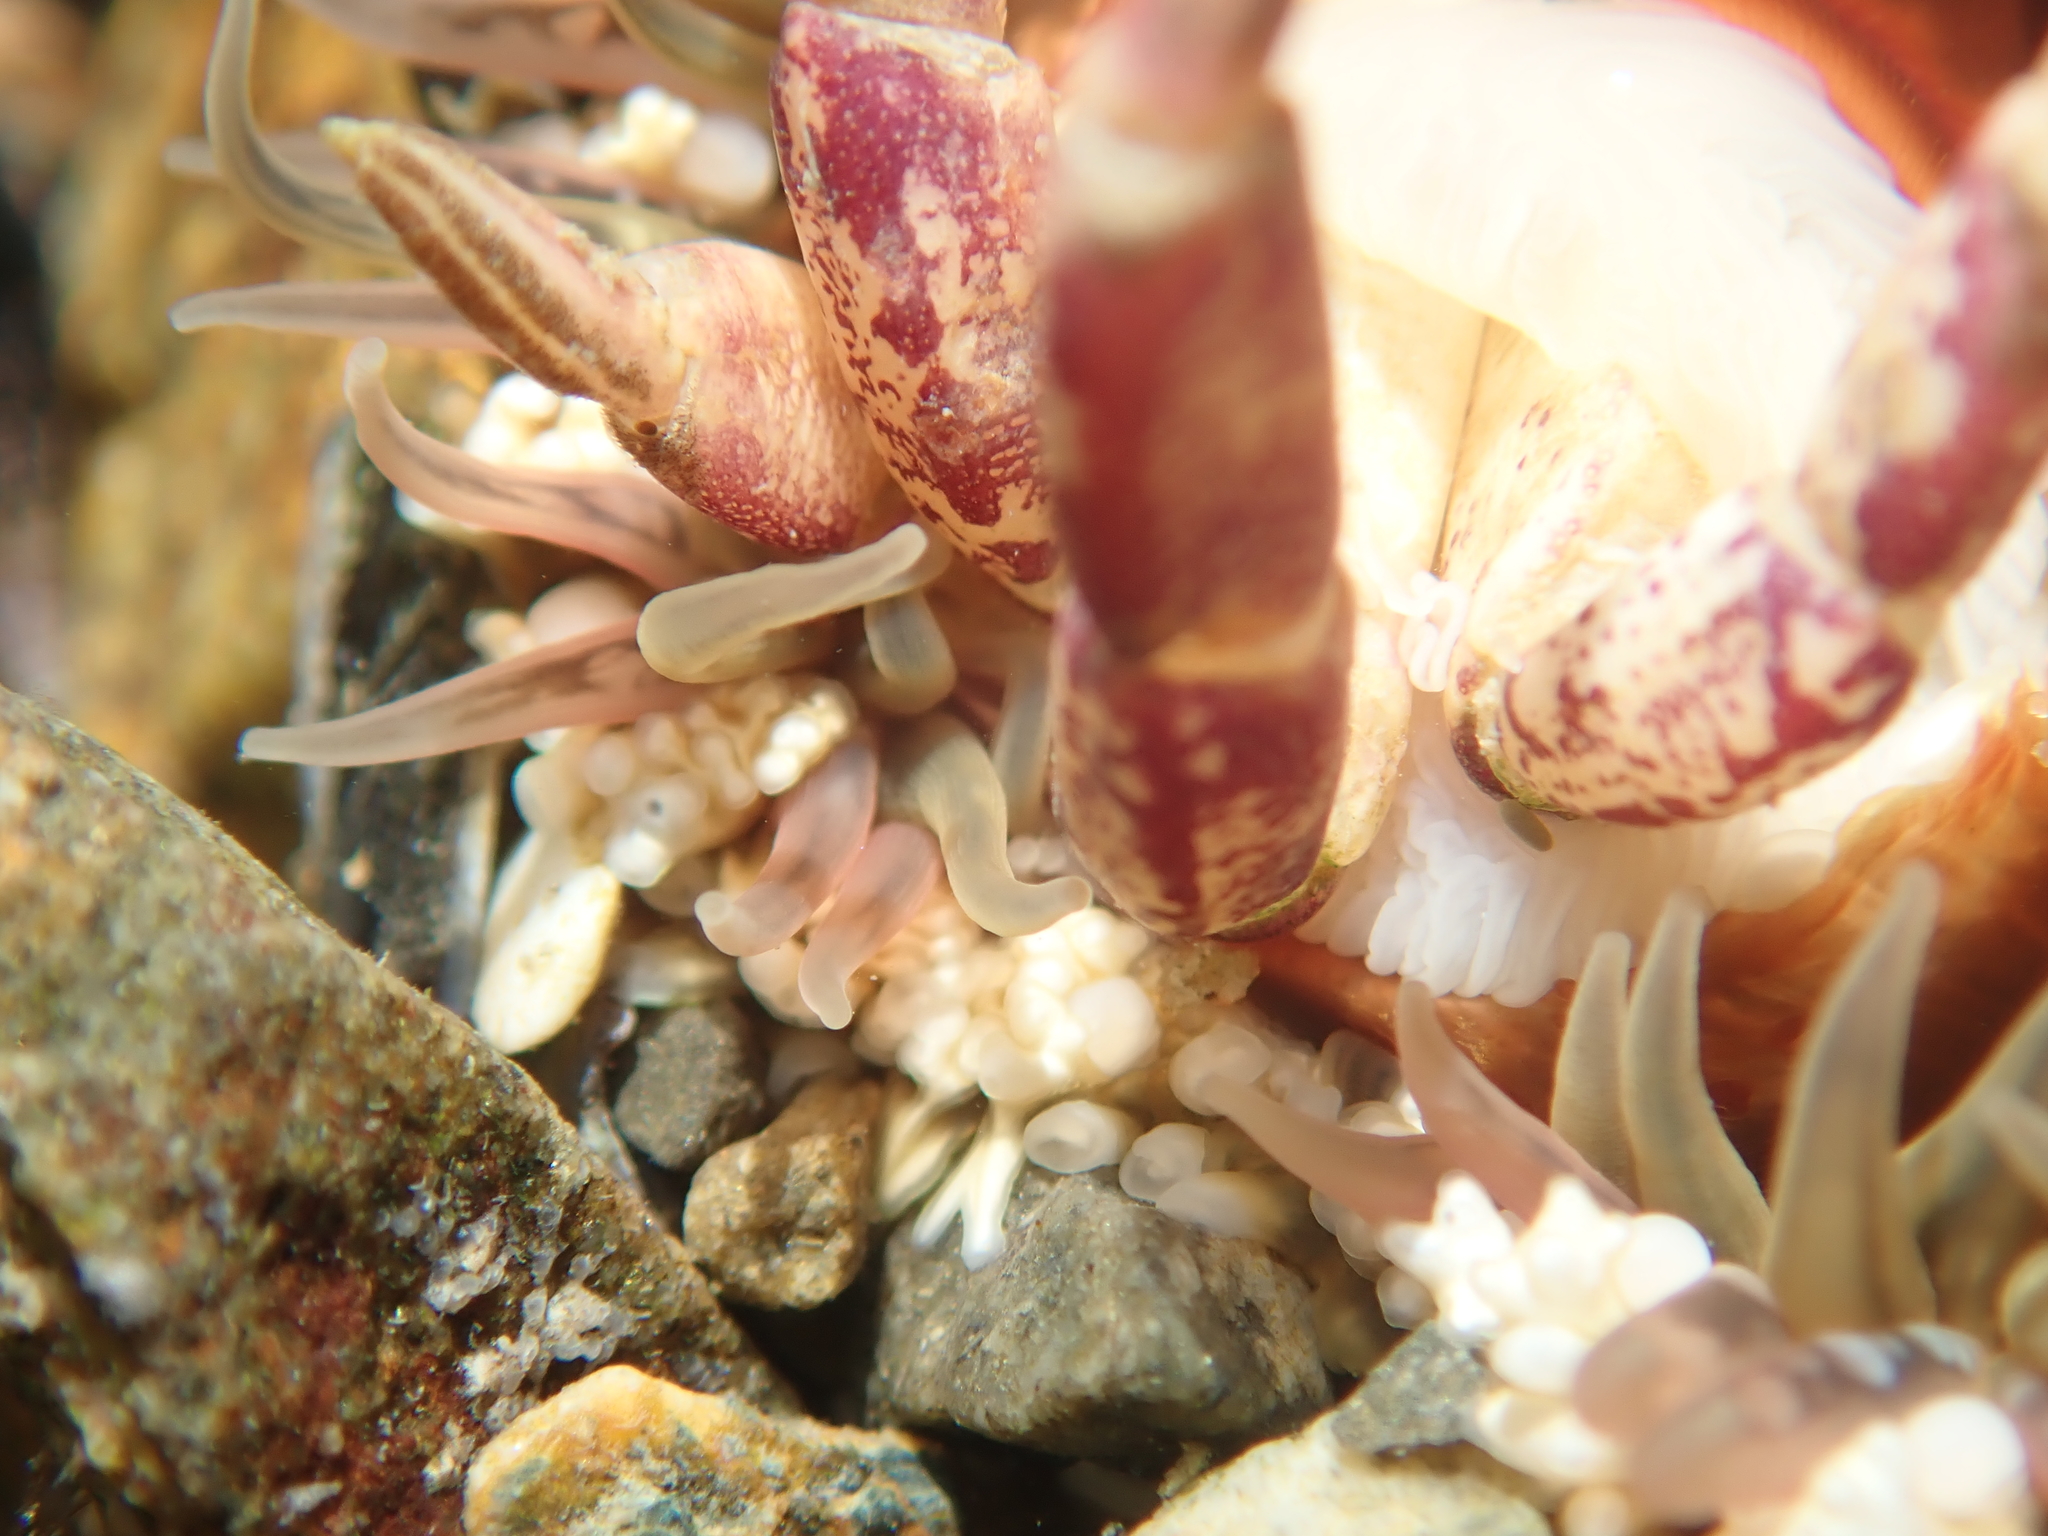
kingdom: Animalia
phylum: Cnidaria
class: Anthozoa
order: Actiniaria
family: Actiniidae
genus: Oulactis
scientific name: Oulactis muscosa
